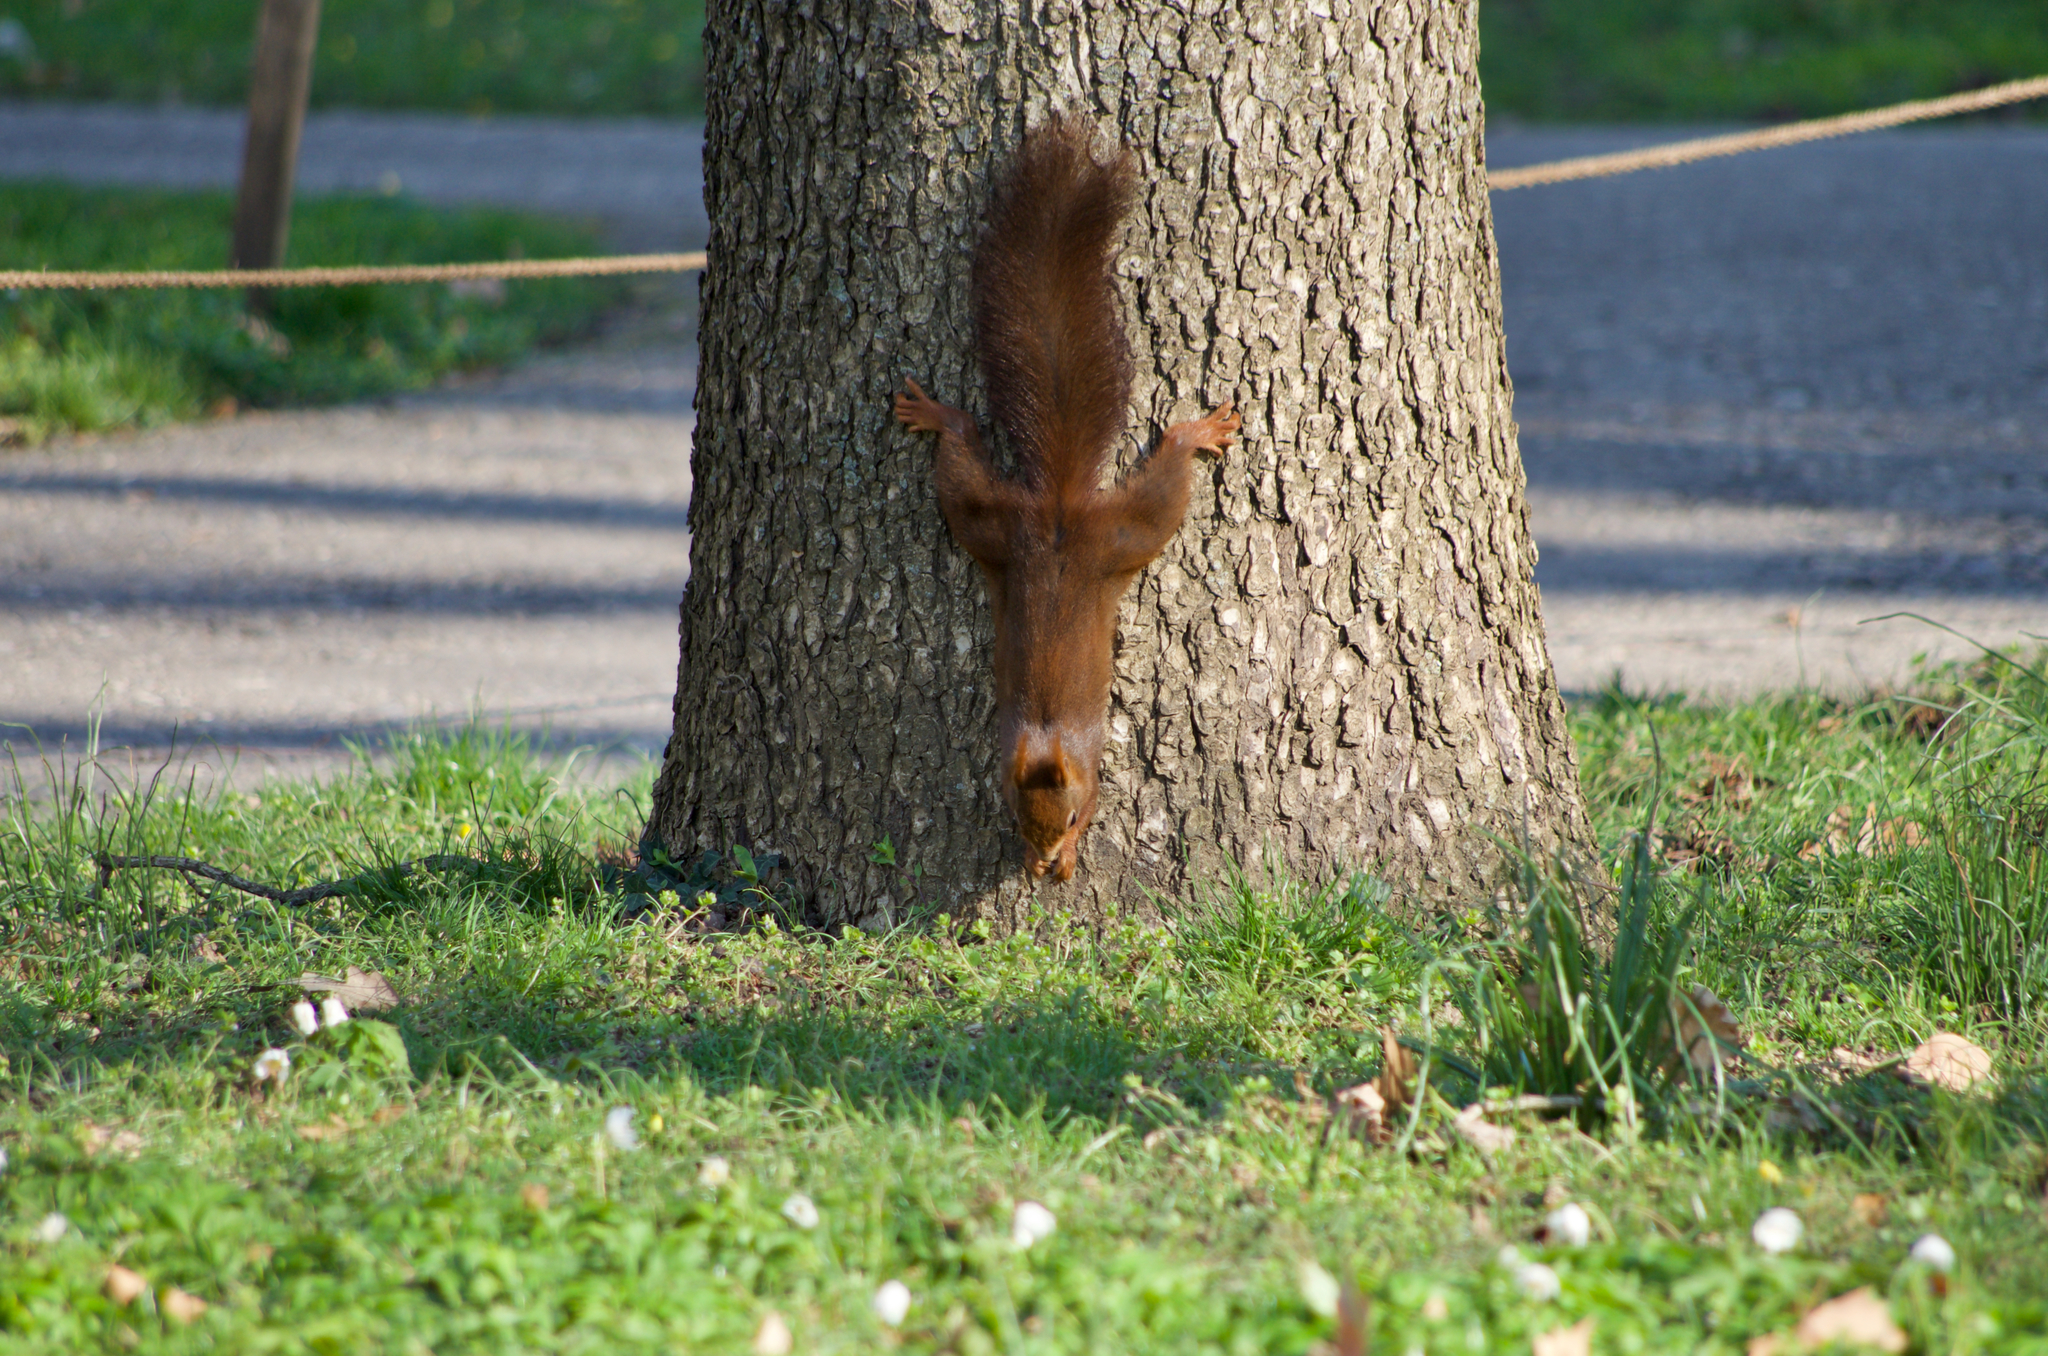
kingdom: Animalia
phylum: Chordata
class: Mammalia
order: Rodentia
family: Sciuridae
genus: Sciurus
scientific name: Sciurus vulgaris
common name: Eurasian red squirrel
